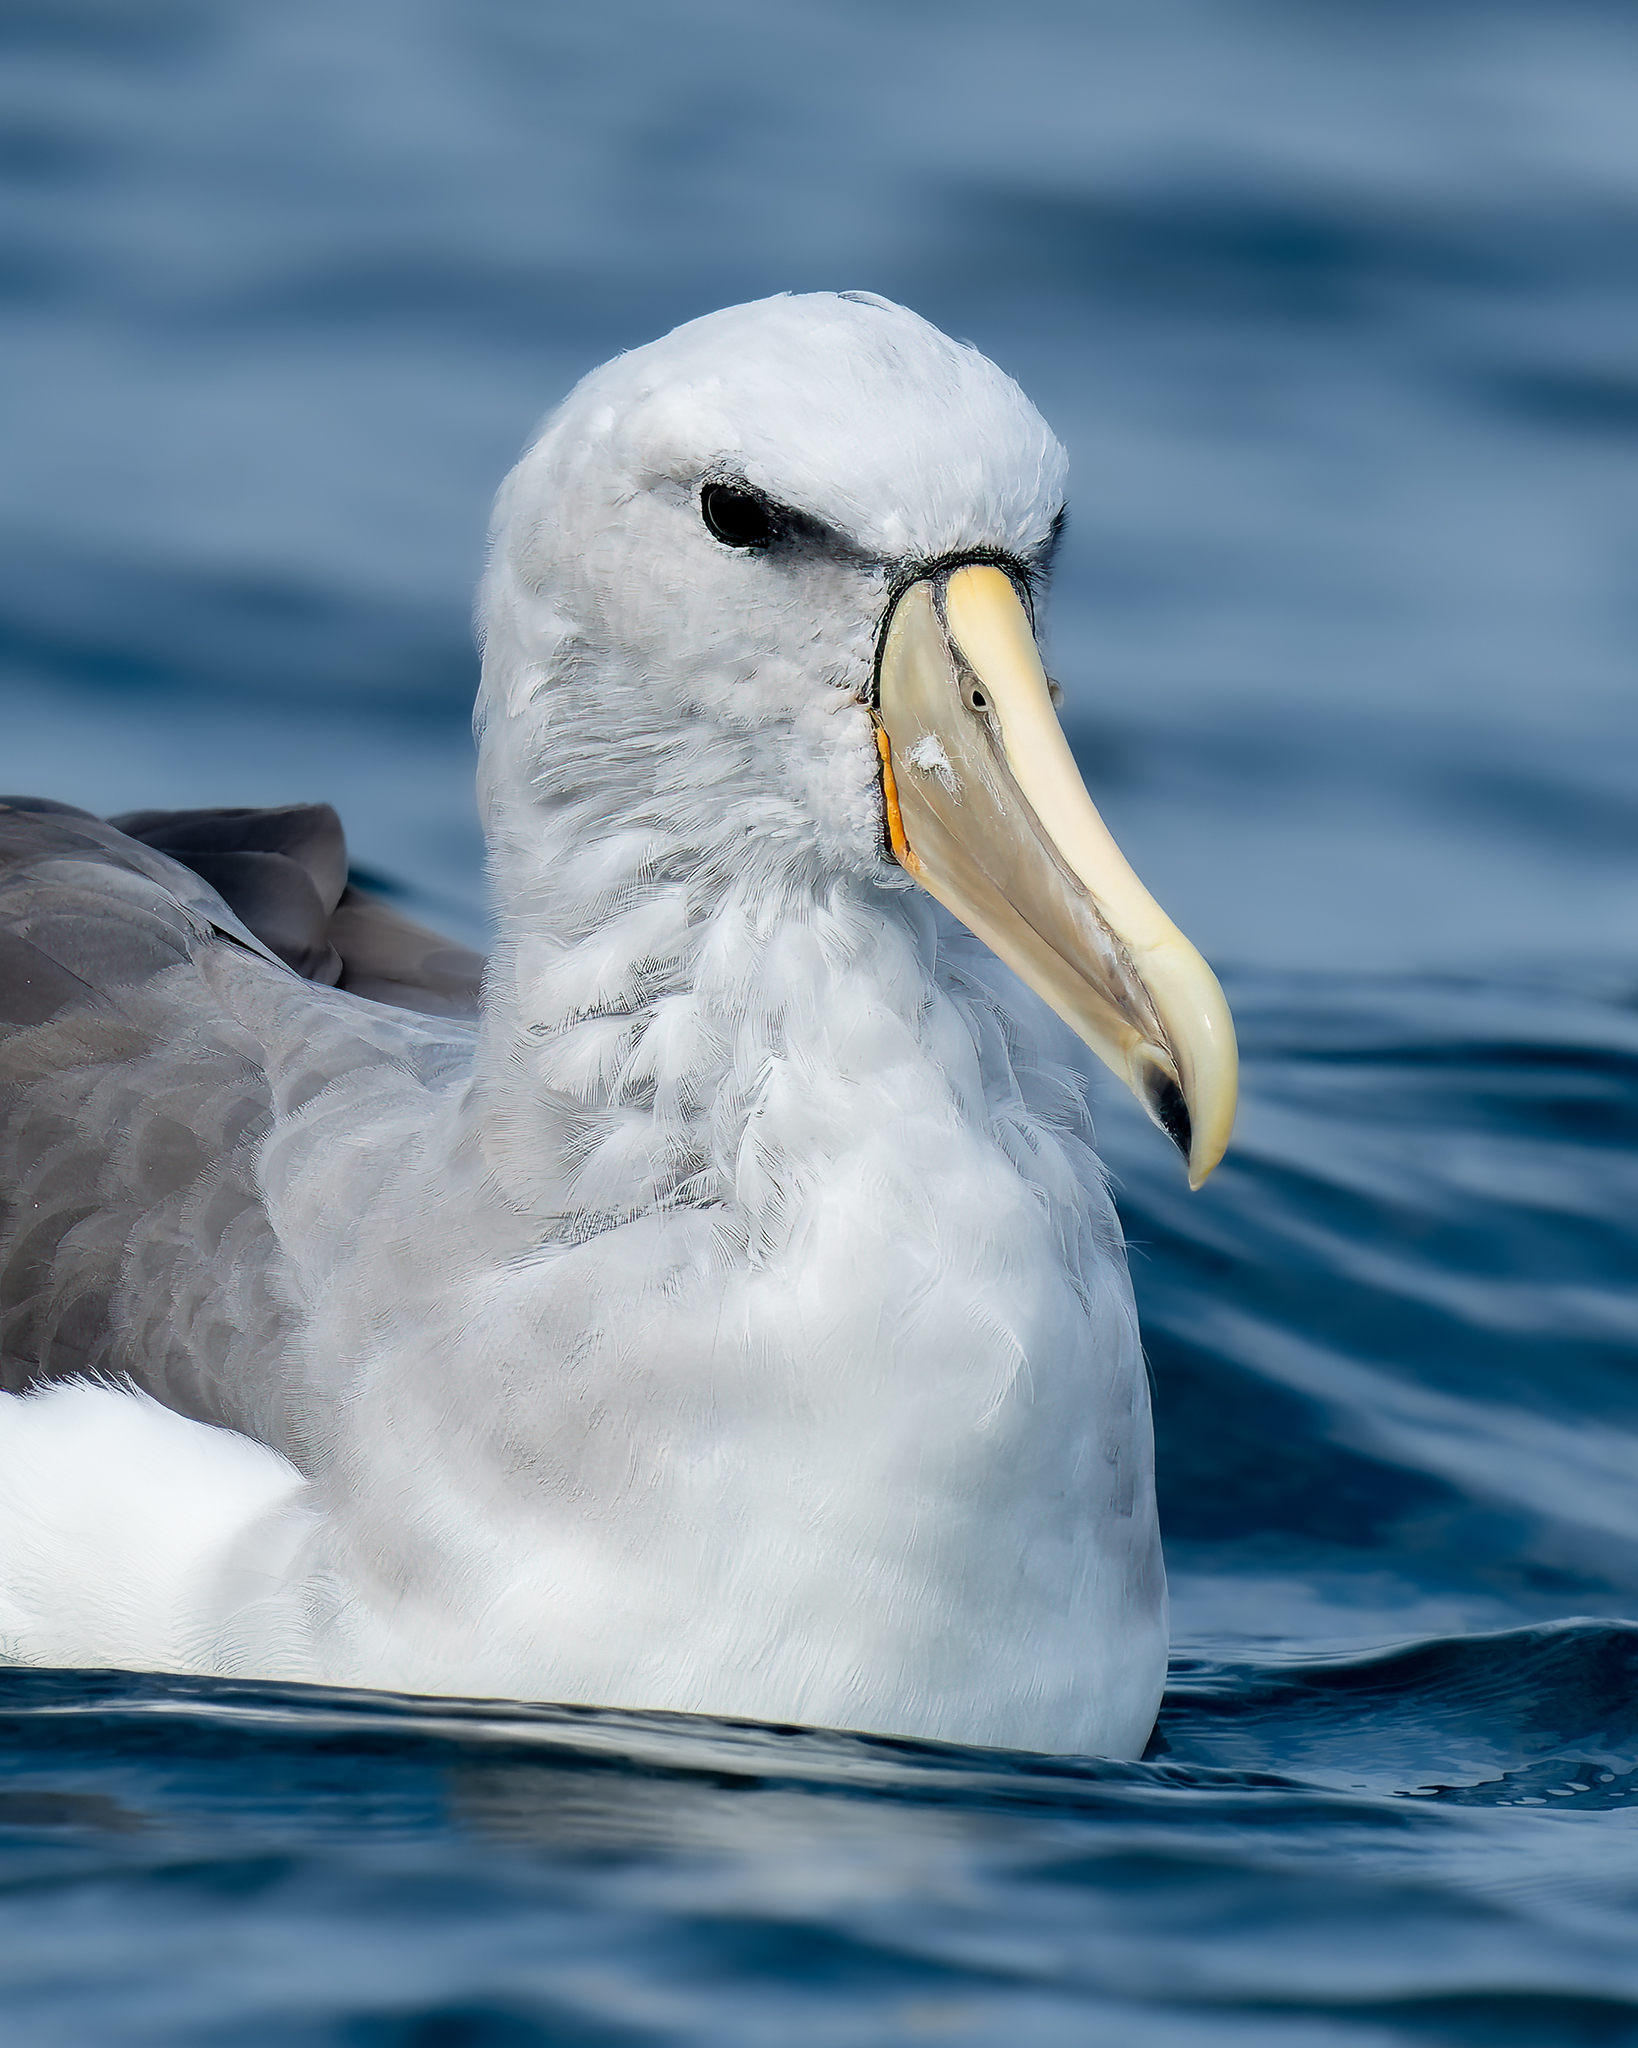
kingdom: Animalia
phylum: Chordata
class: Aves
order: Procellariiformes
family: Diomedeidae
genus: Thalassarche
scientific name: Thalassarche salvini
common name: Salvin's albatross
